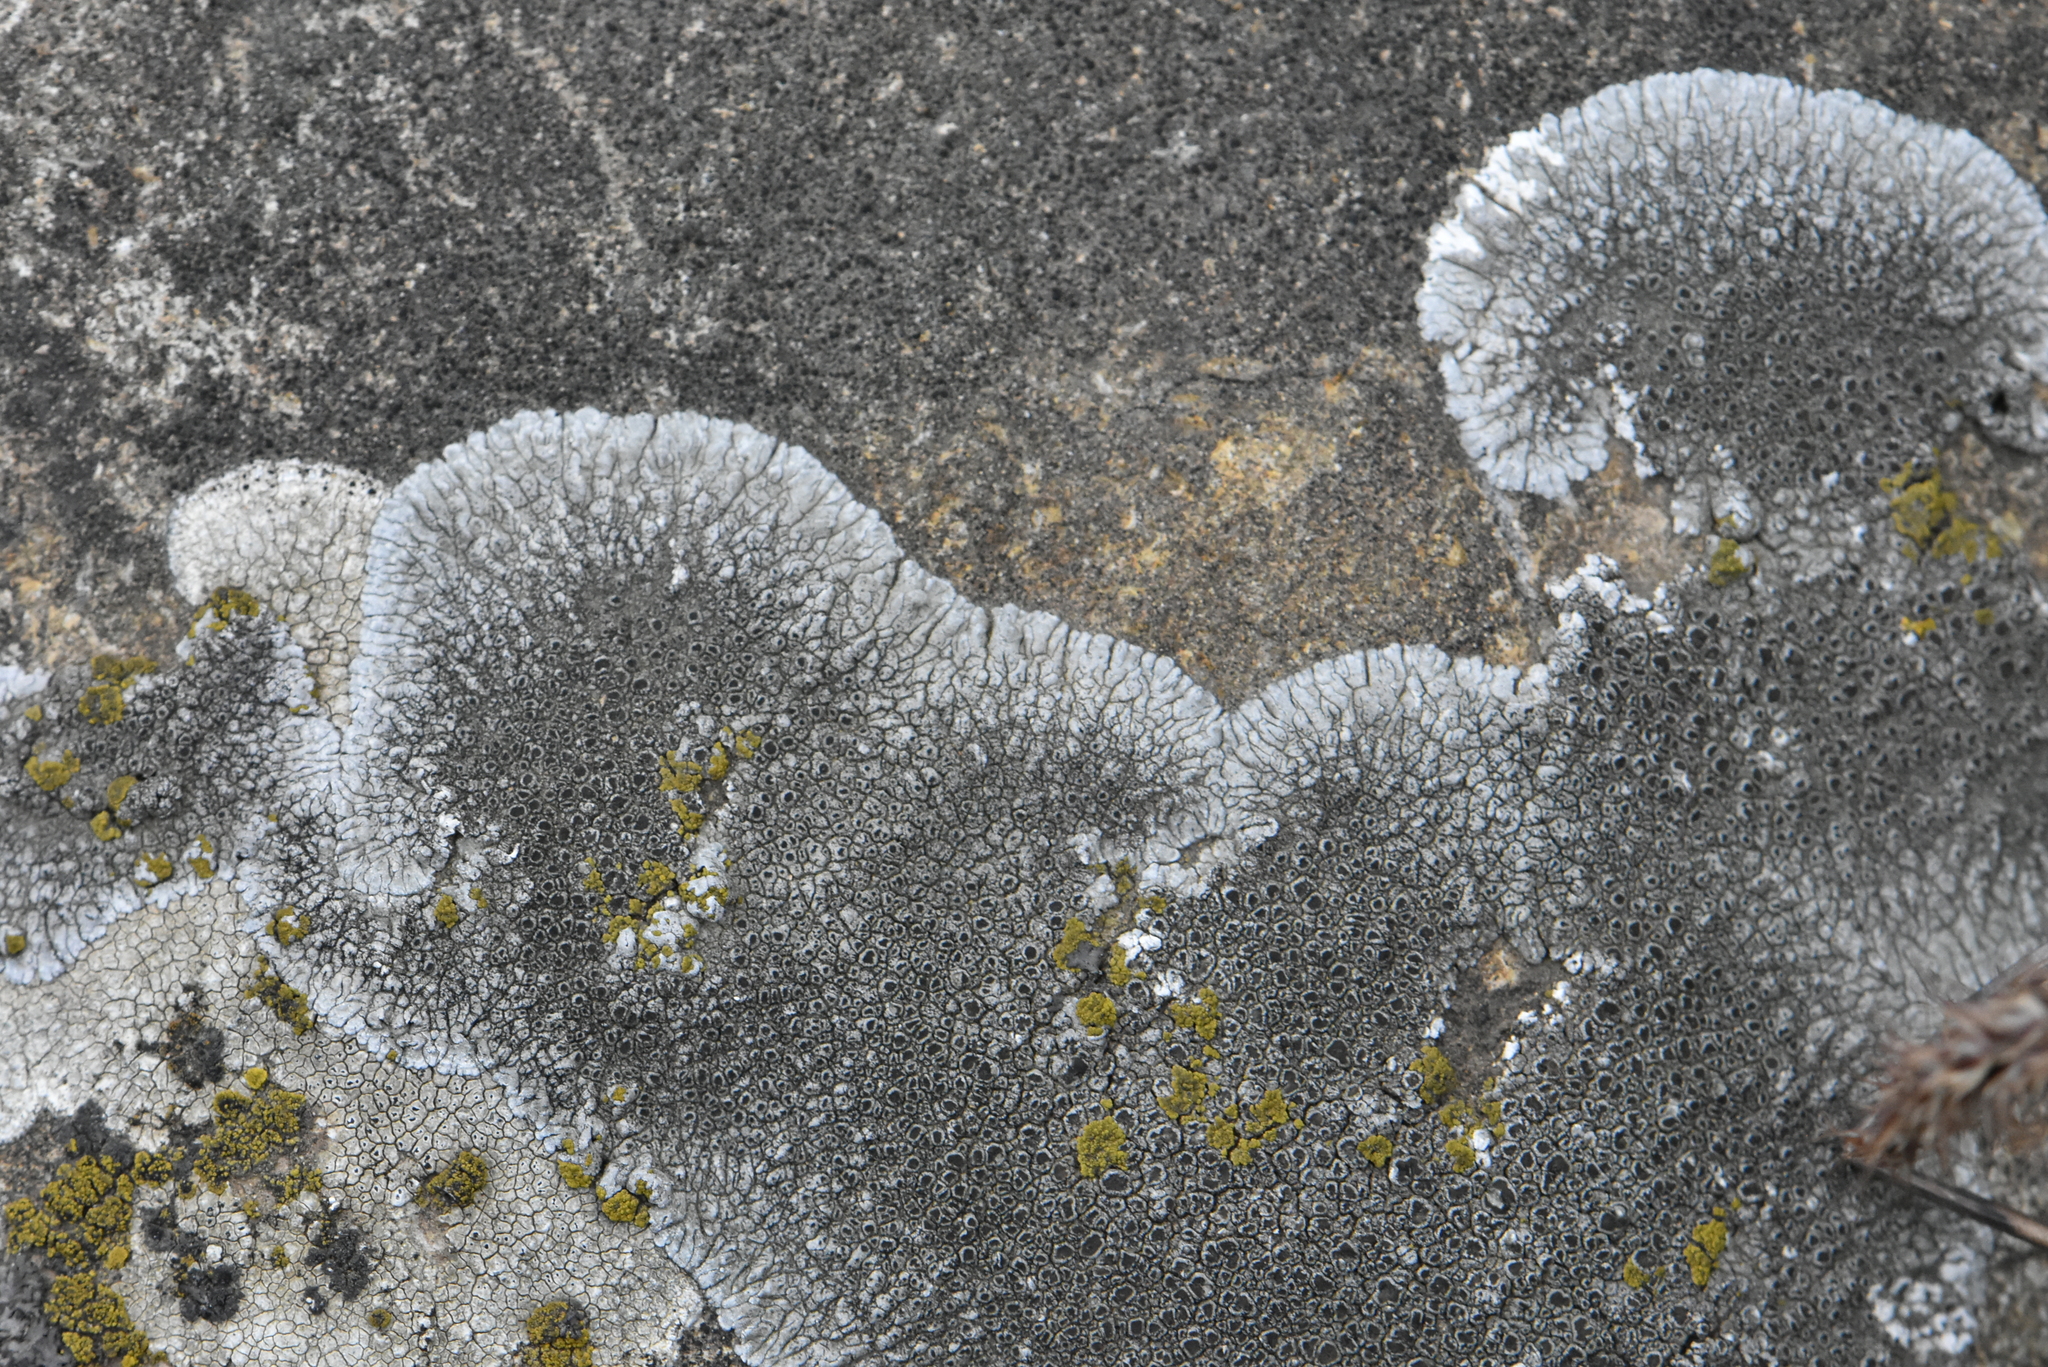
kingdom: Fungi
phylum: Ascomycota
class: Lecanoromycetes
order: Pertusariales
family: Megasporaceae
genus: Lobothallia
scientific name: Lobothallia radiosa
